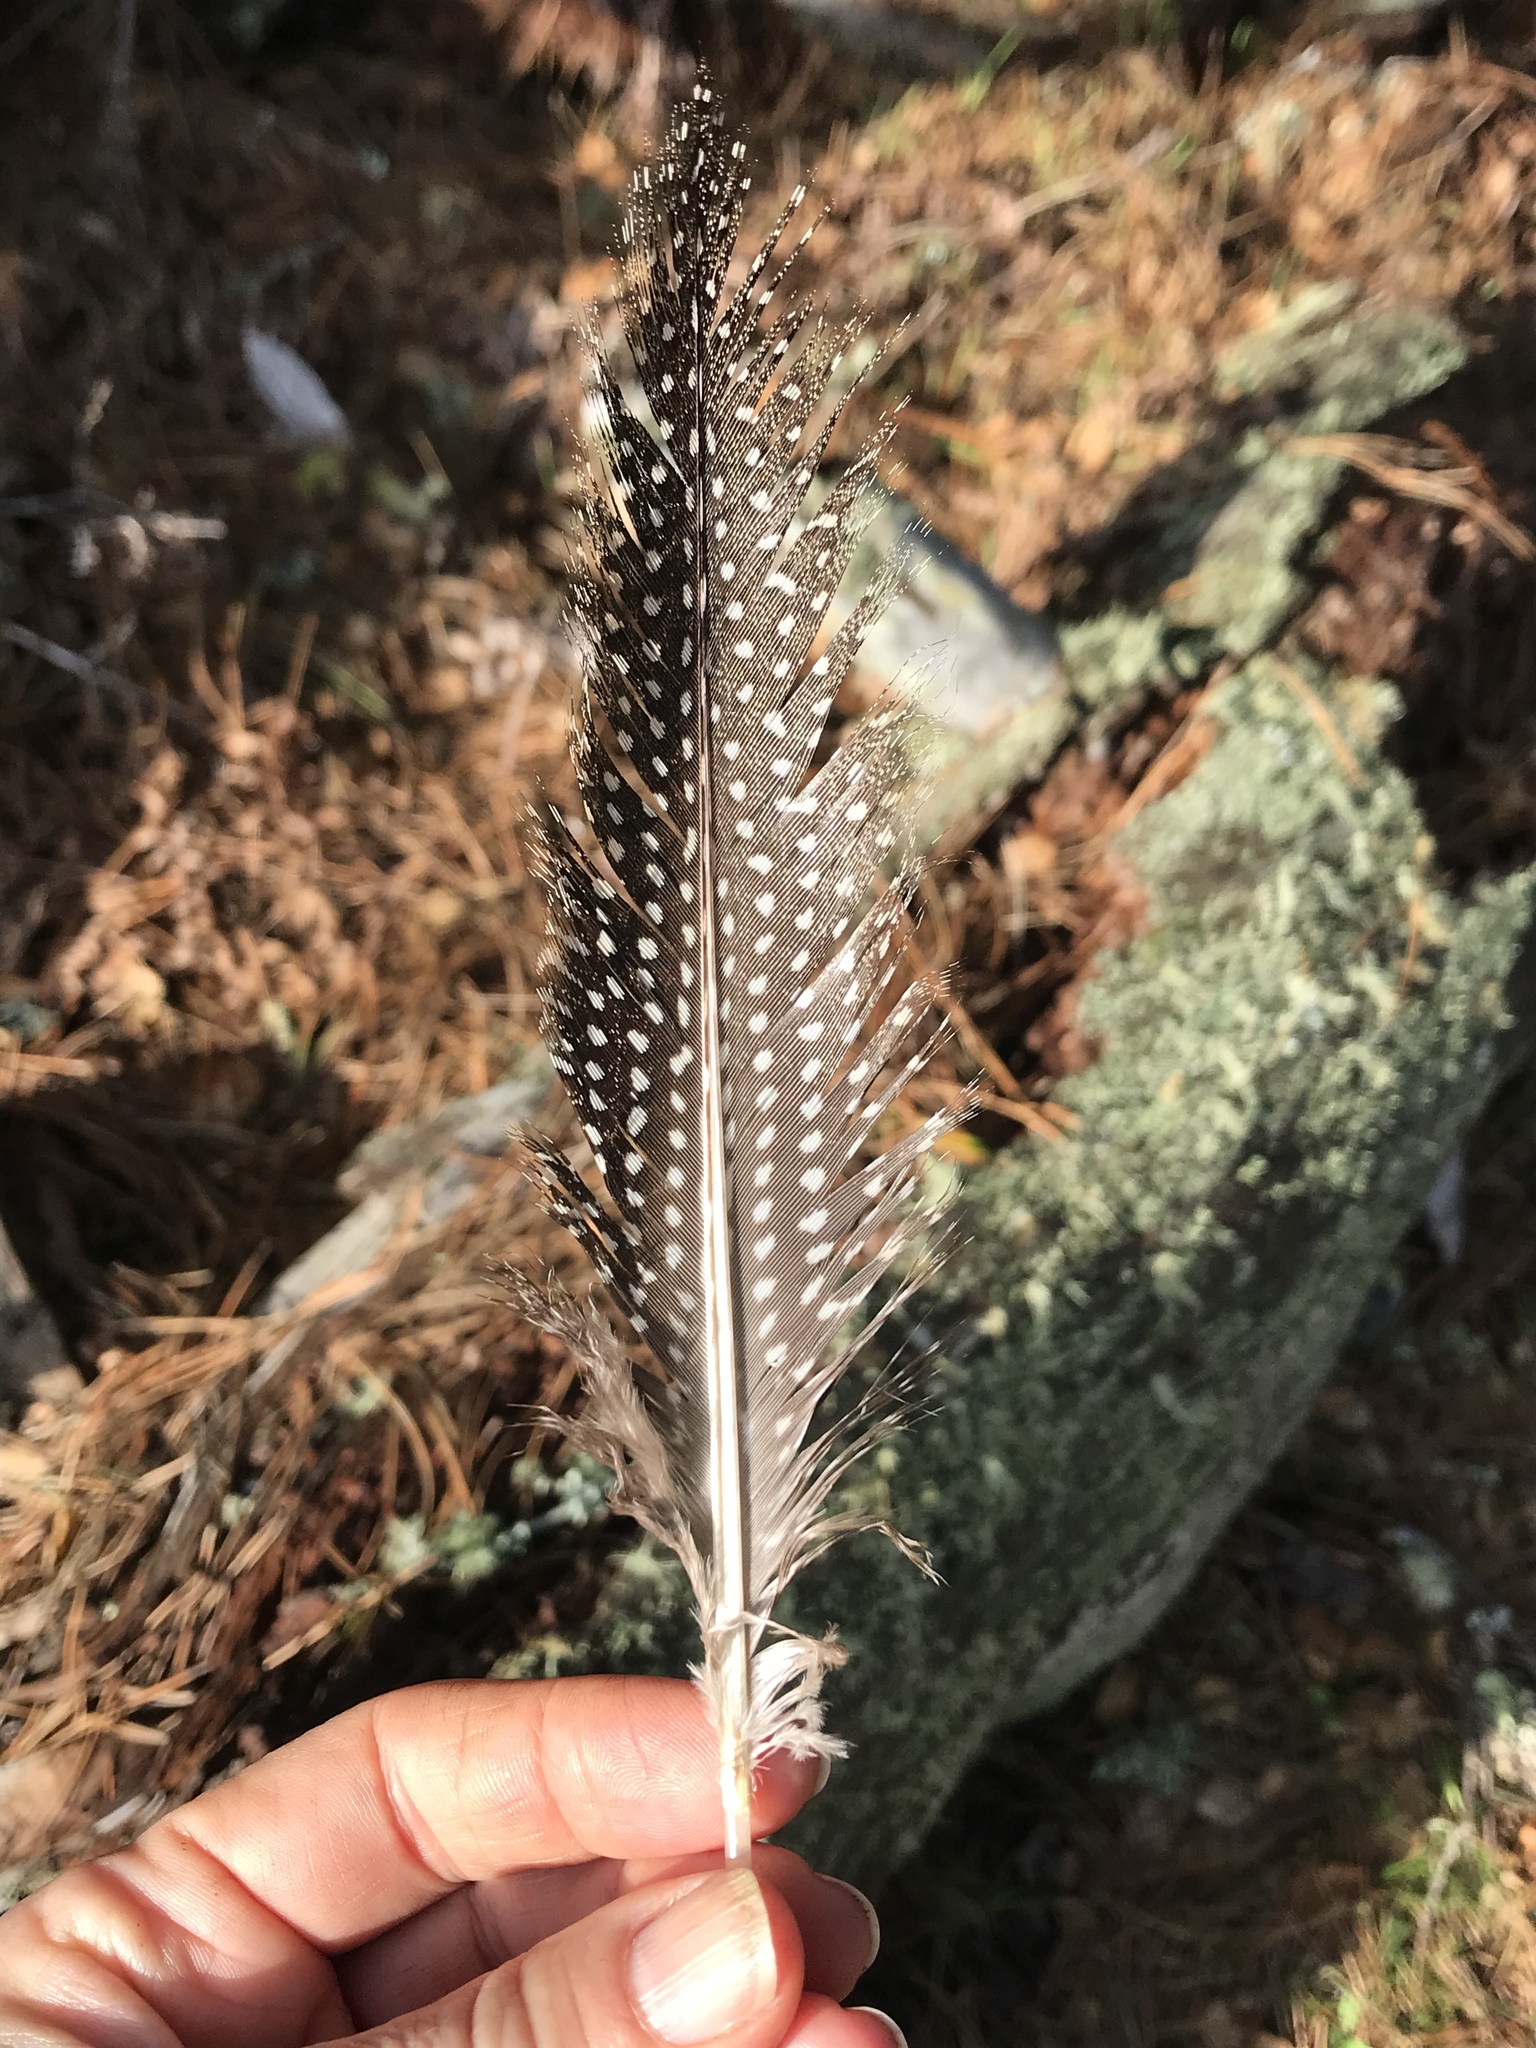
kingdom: Animalia
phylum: Chordata
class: Aves
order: Galliformes
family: Numididae
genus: Numida
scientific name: Numida meleagris
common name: Helmeted guineafowl
